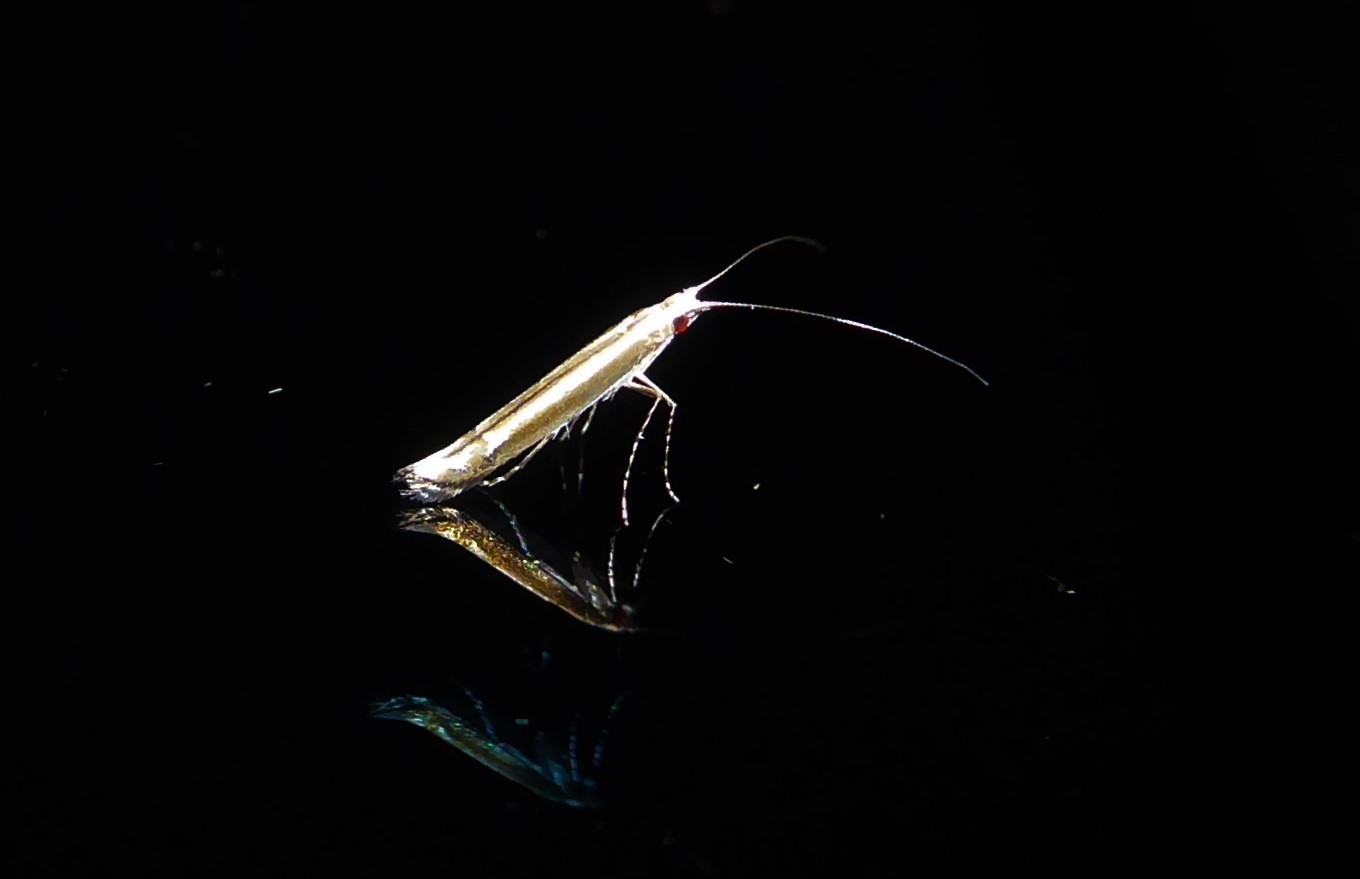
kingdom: Animalia
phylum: Arthropoda
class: Insecta
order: Lepidoptera
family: Gracillariidae
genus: Acrocercops
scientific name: Acrocercops laciniella
